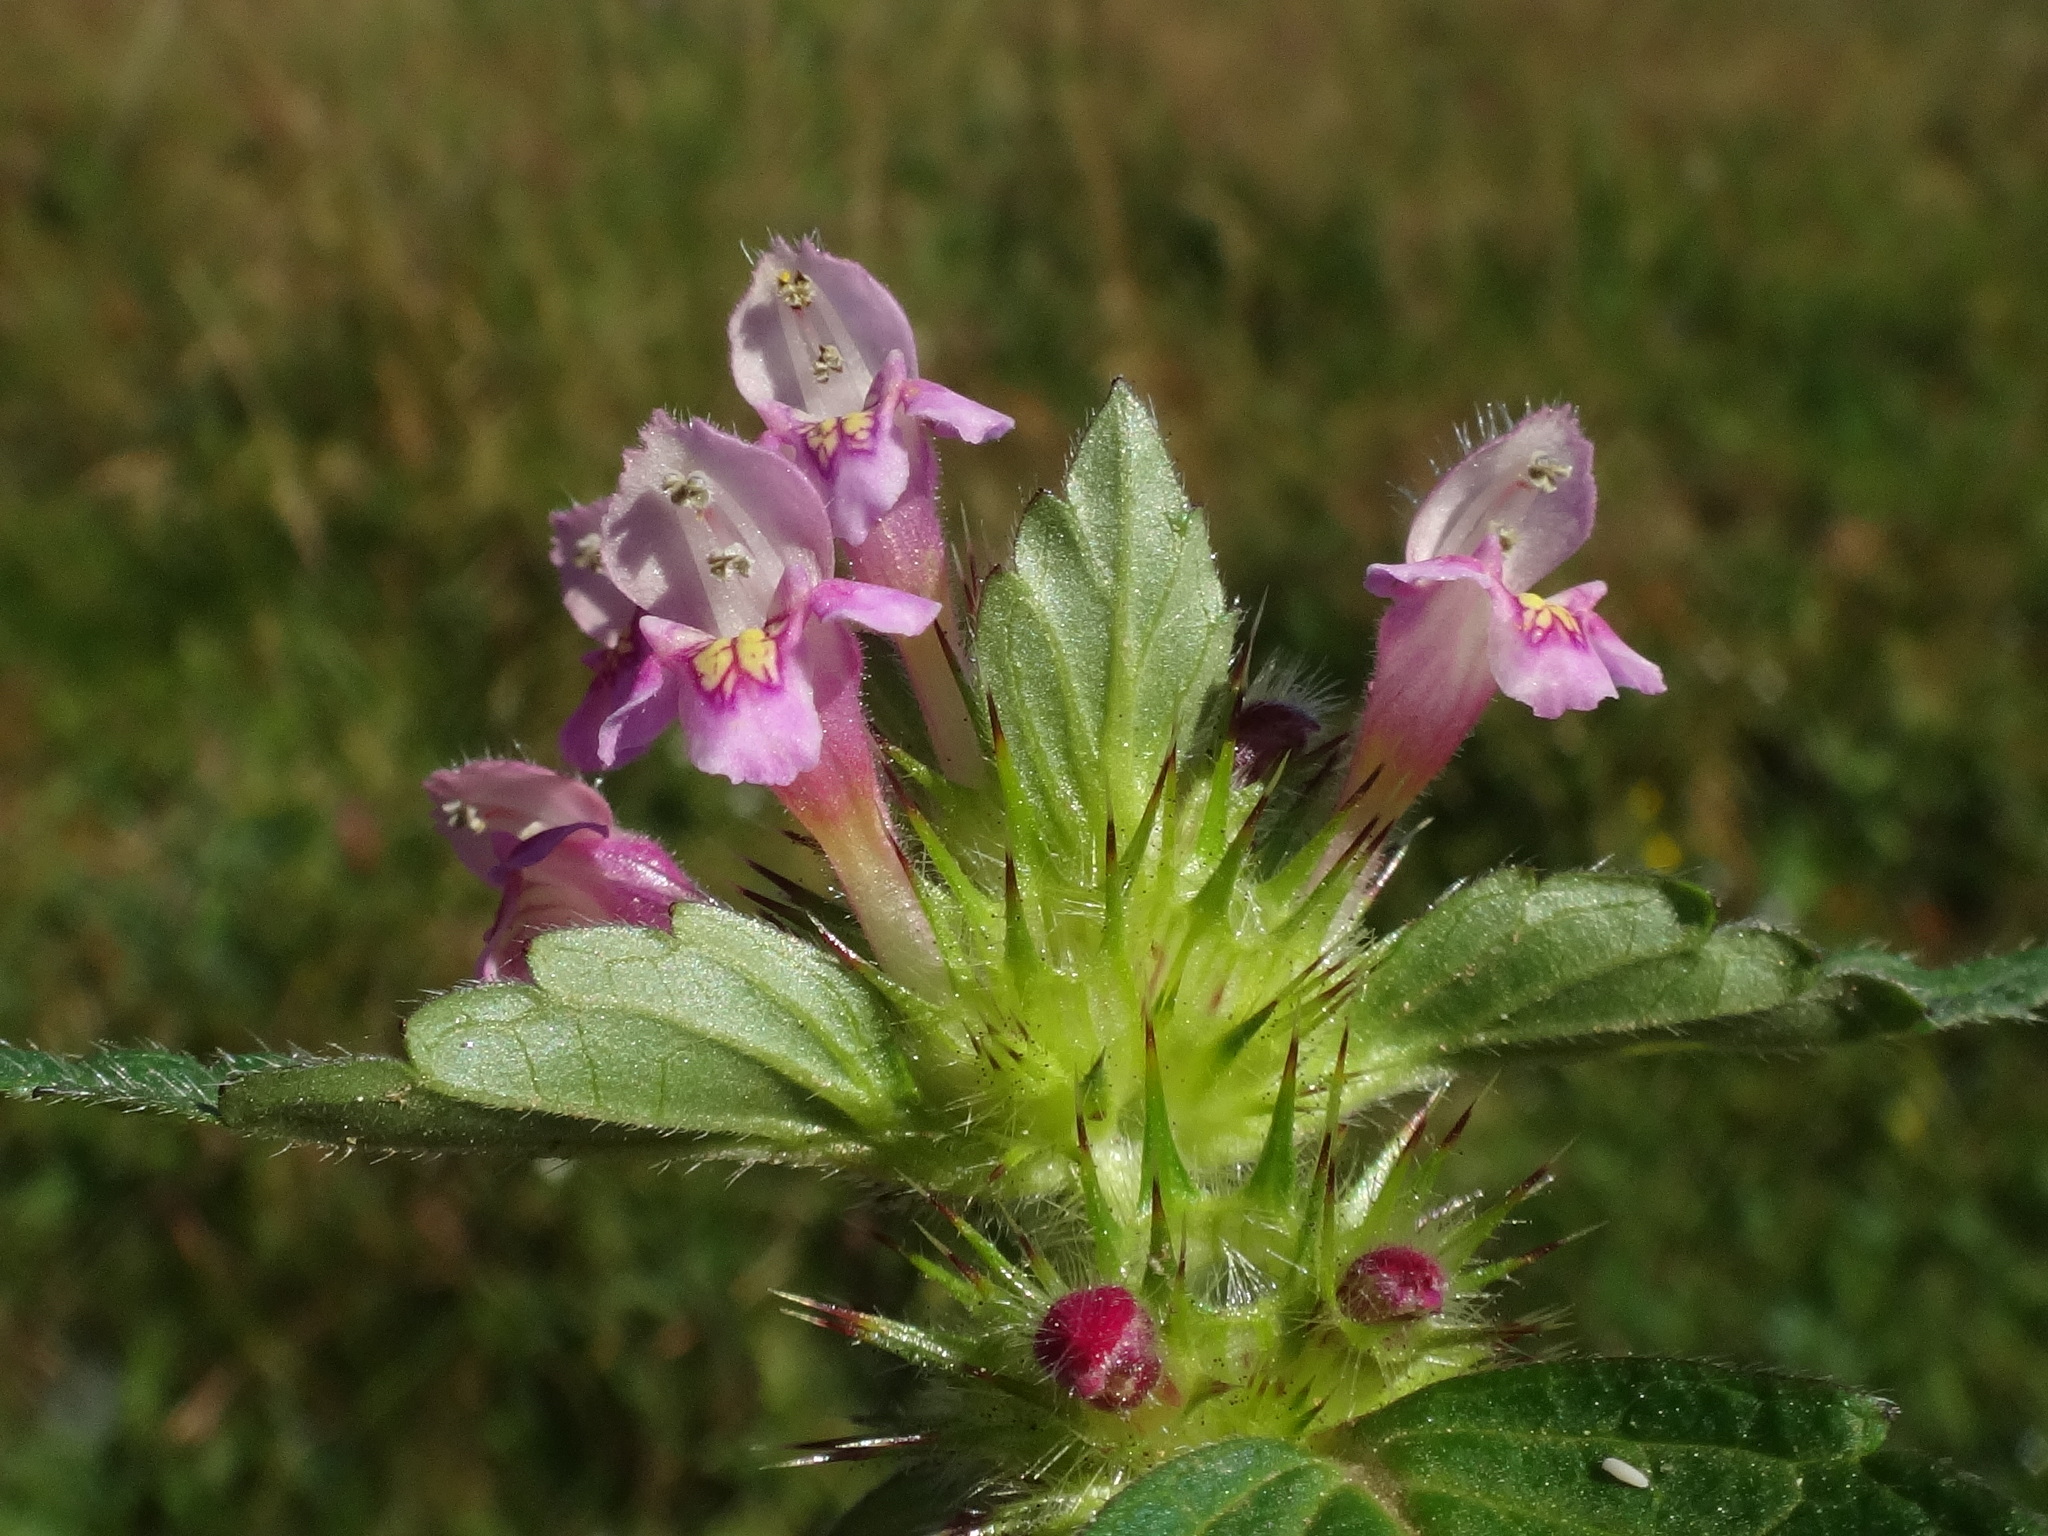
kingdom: Plantae
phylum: Tracheophyta
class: Magnoliopsida
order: Lamiales
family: Lamiaceae
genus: Galeopsis
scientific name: Galeopsis tetrahit
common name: Common hemp-nettle
